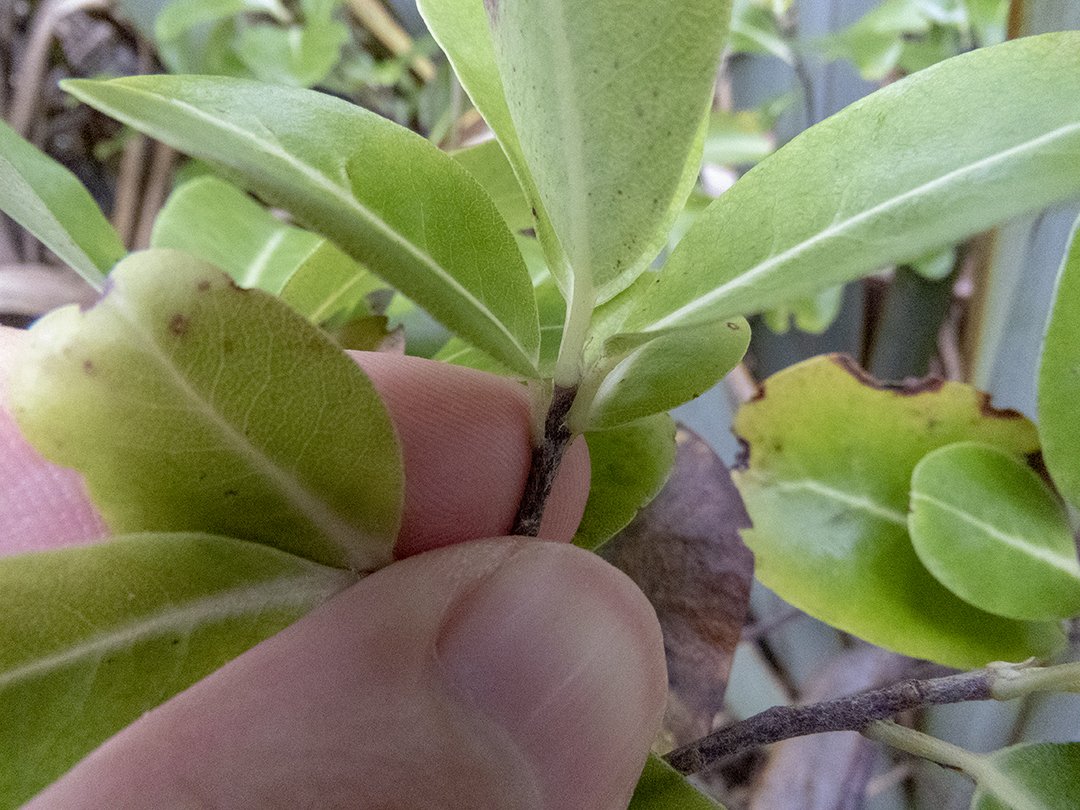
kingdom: Plantae
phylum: Tracheophyta
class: Magnoliopsida
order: Apiales
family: Pittosporaceae
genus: Pittosporum
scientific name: Pittosporum colensoi
